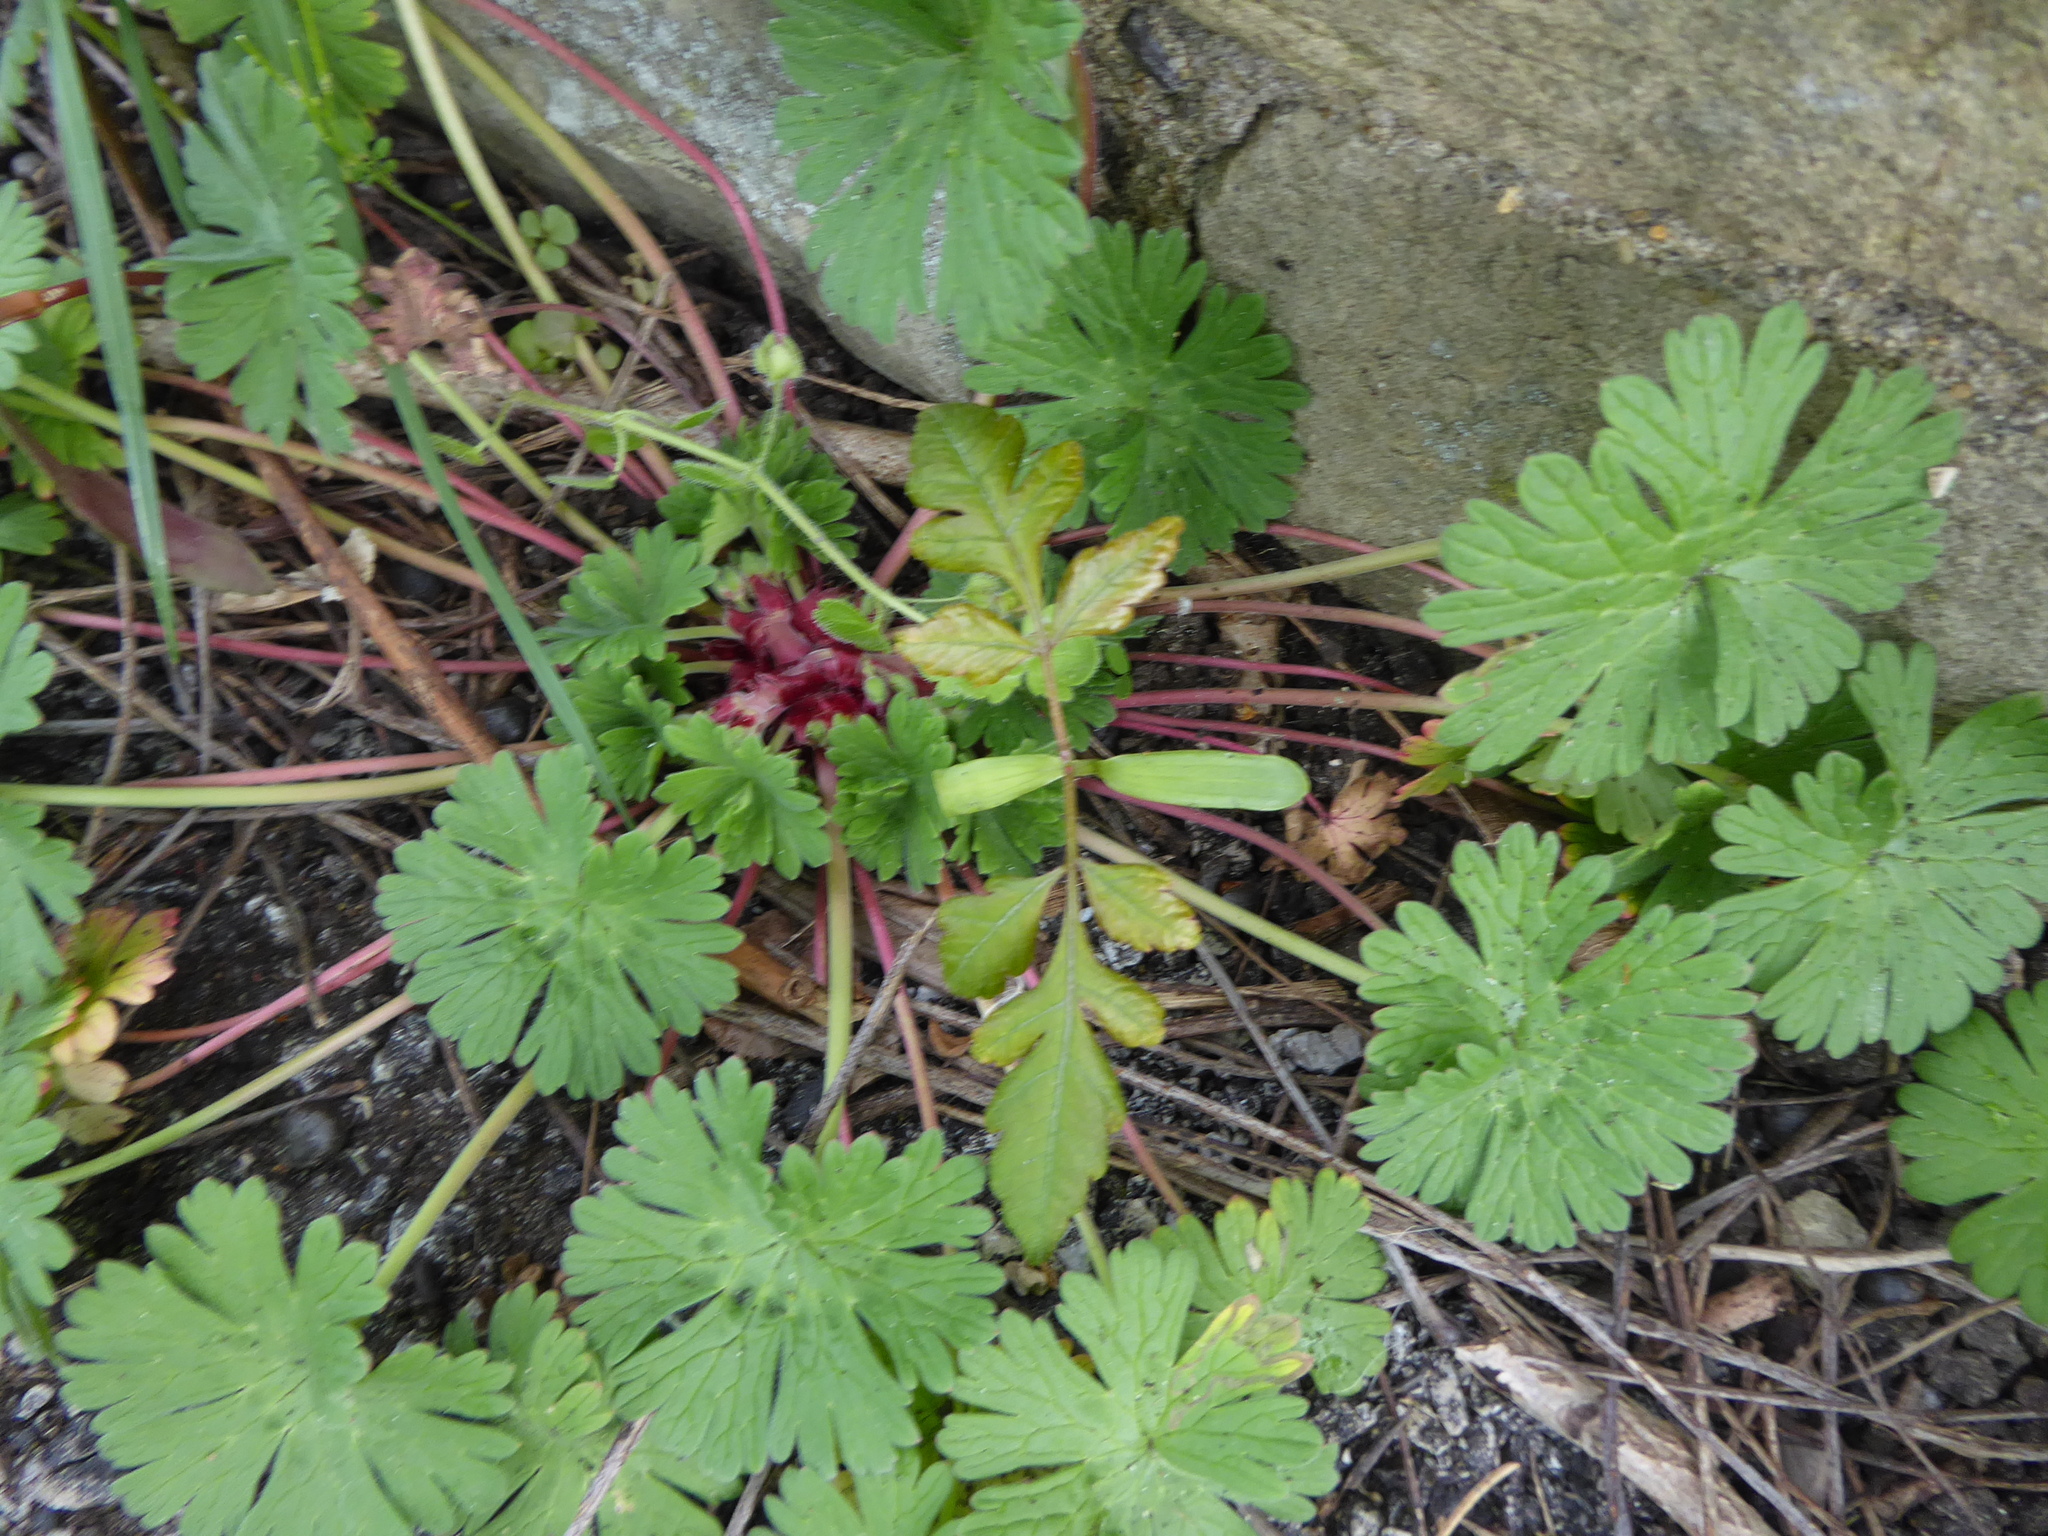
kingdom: Plantae
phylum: Tracheophyta
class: Magnoliopsida
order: Sapindales
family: Sapindaceae
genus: Koelreuteria
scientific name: Koelreuteria paniculata
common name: Pride-of-india
